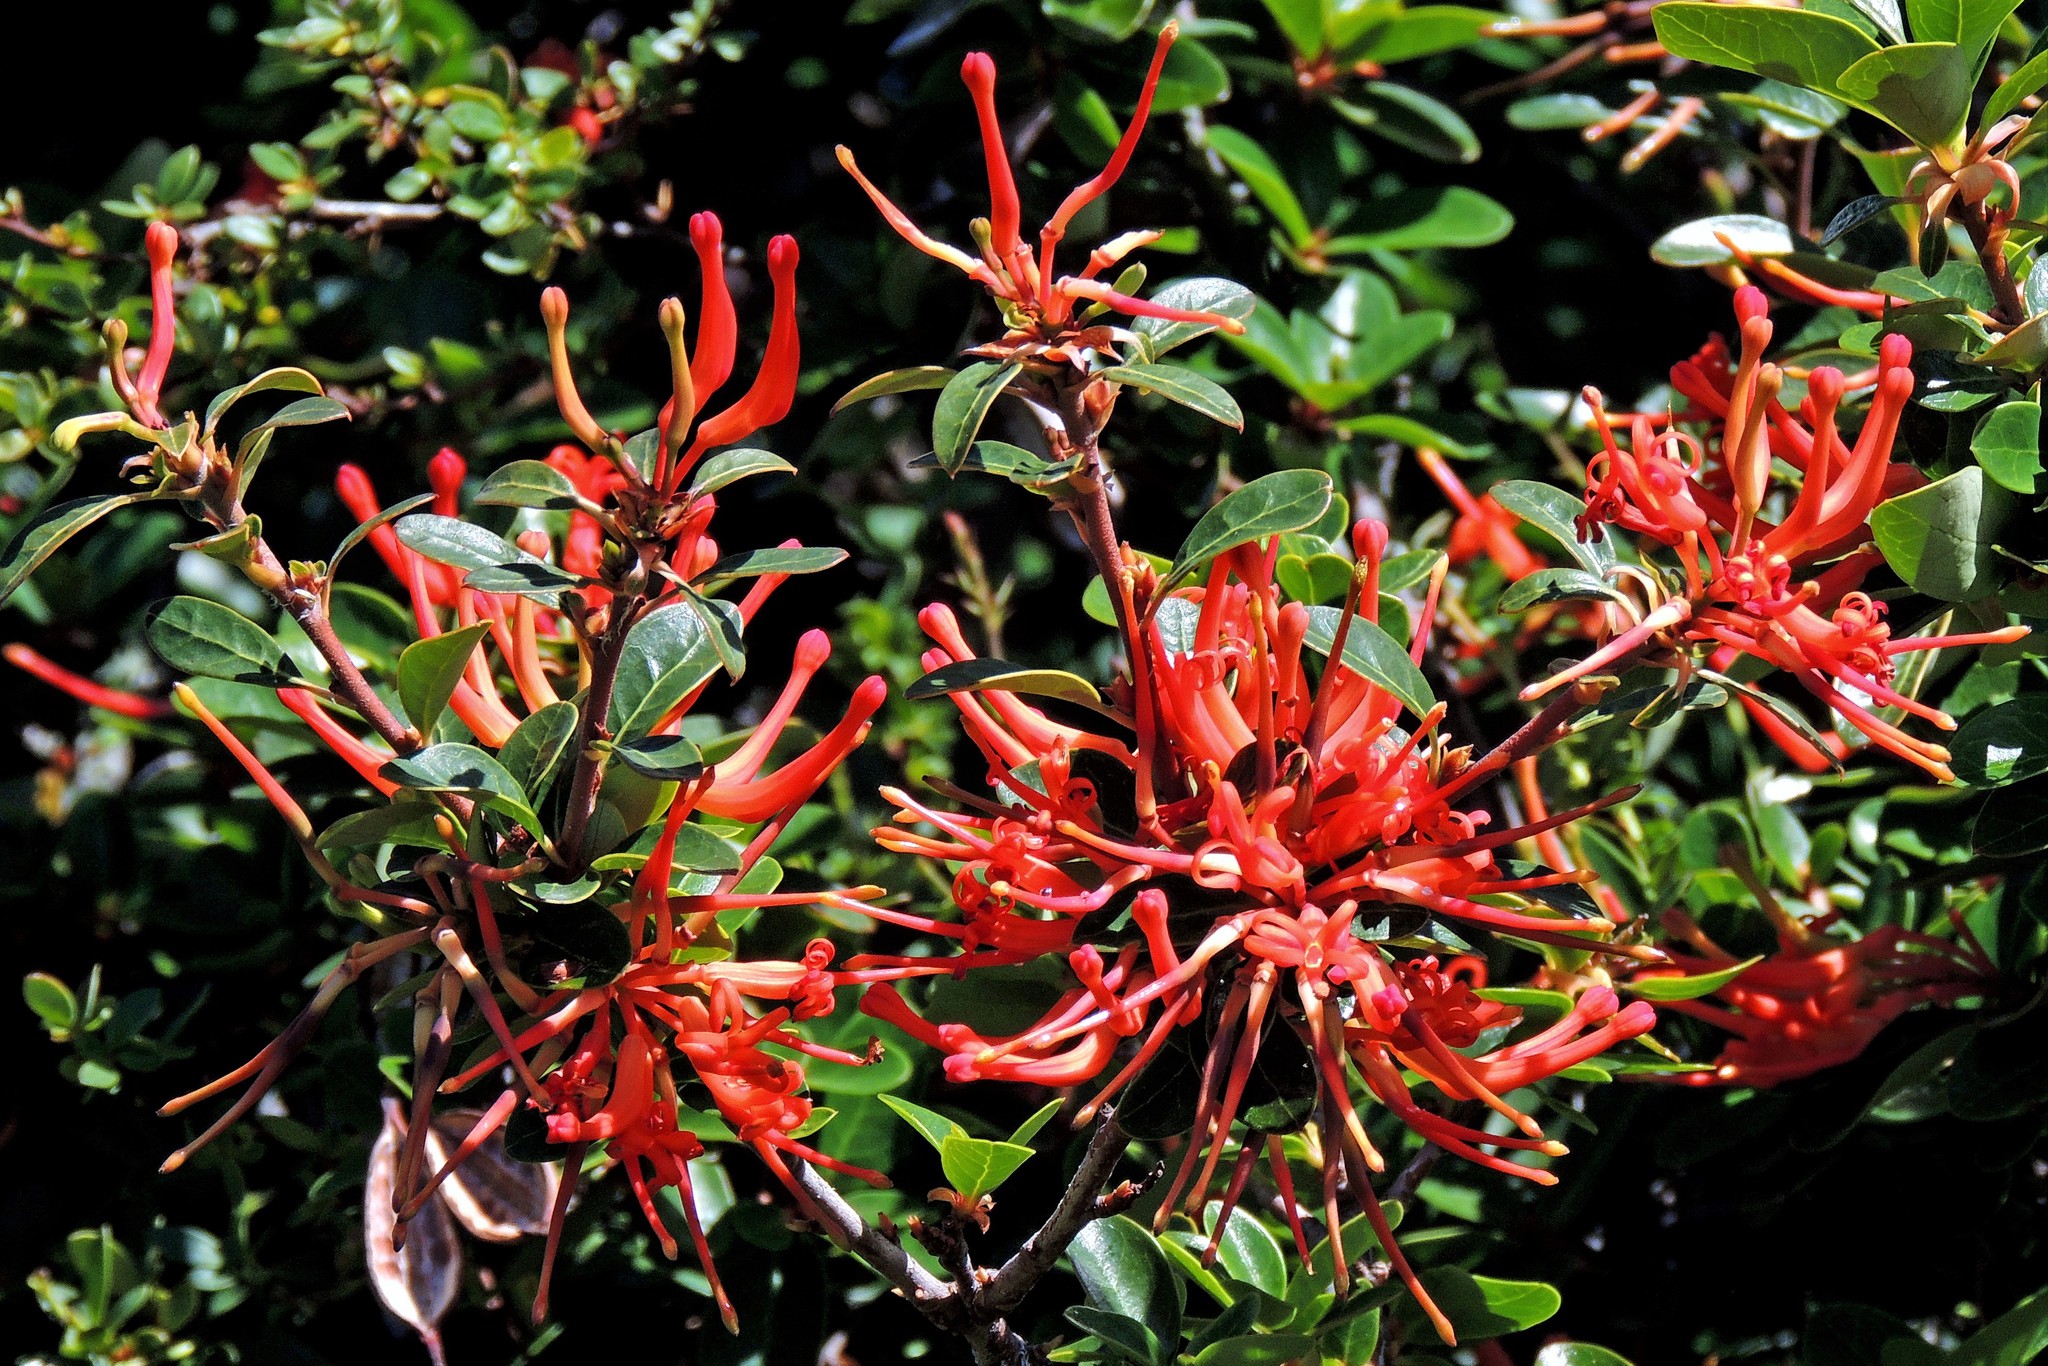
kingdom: Plantae
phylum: Tracheophyta
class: Magnoliopsida
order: Proteales
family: Proteaceae
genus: Embothrium
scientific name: Embothrium coccineum
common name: Chilean firebush
